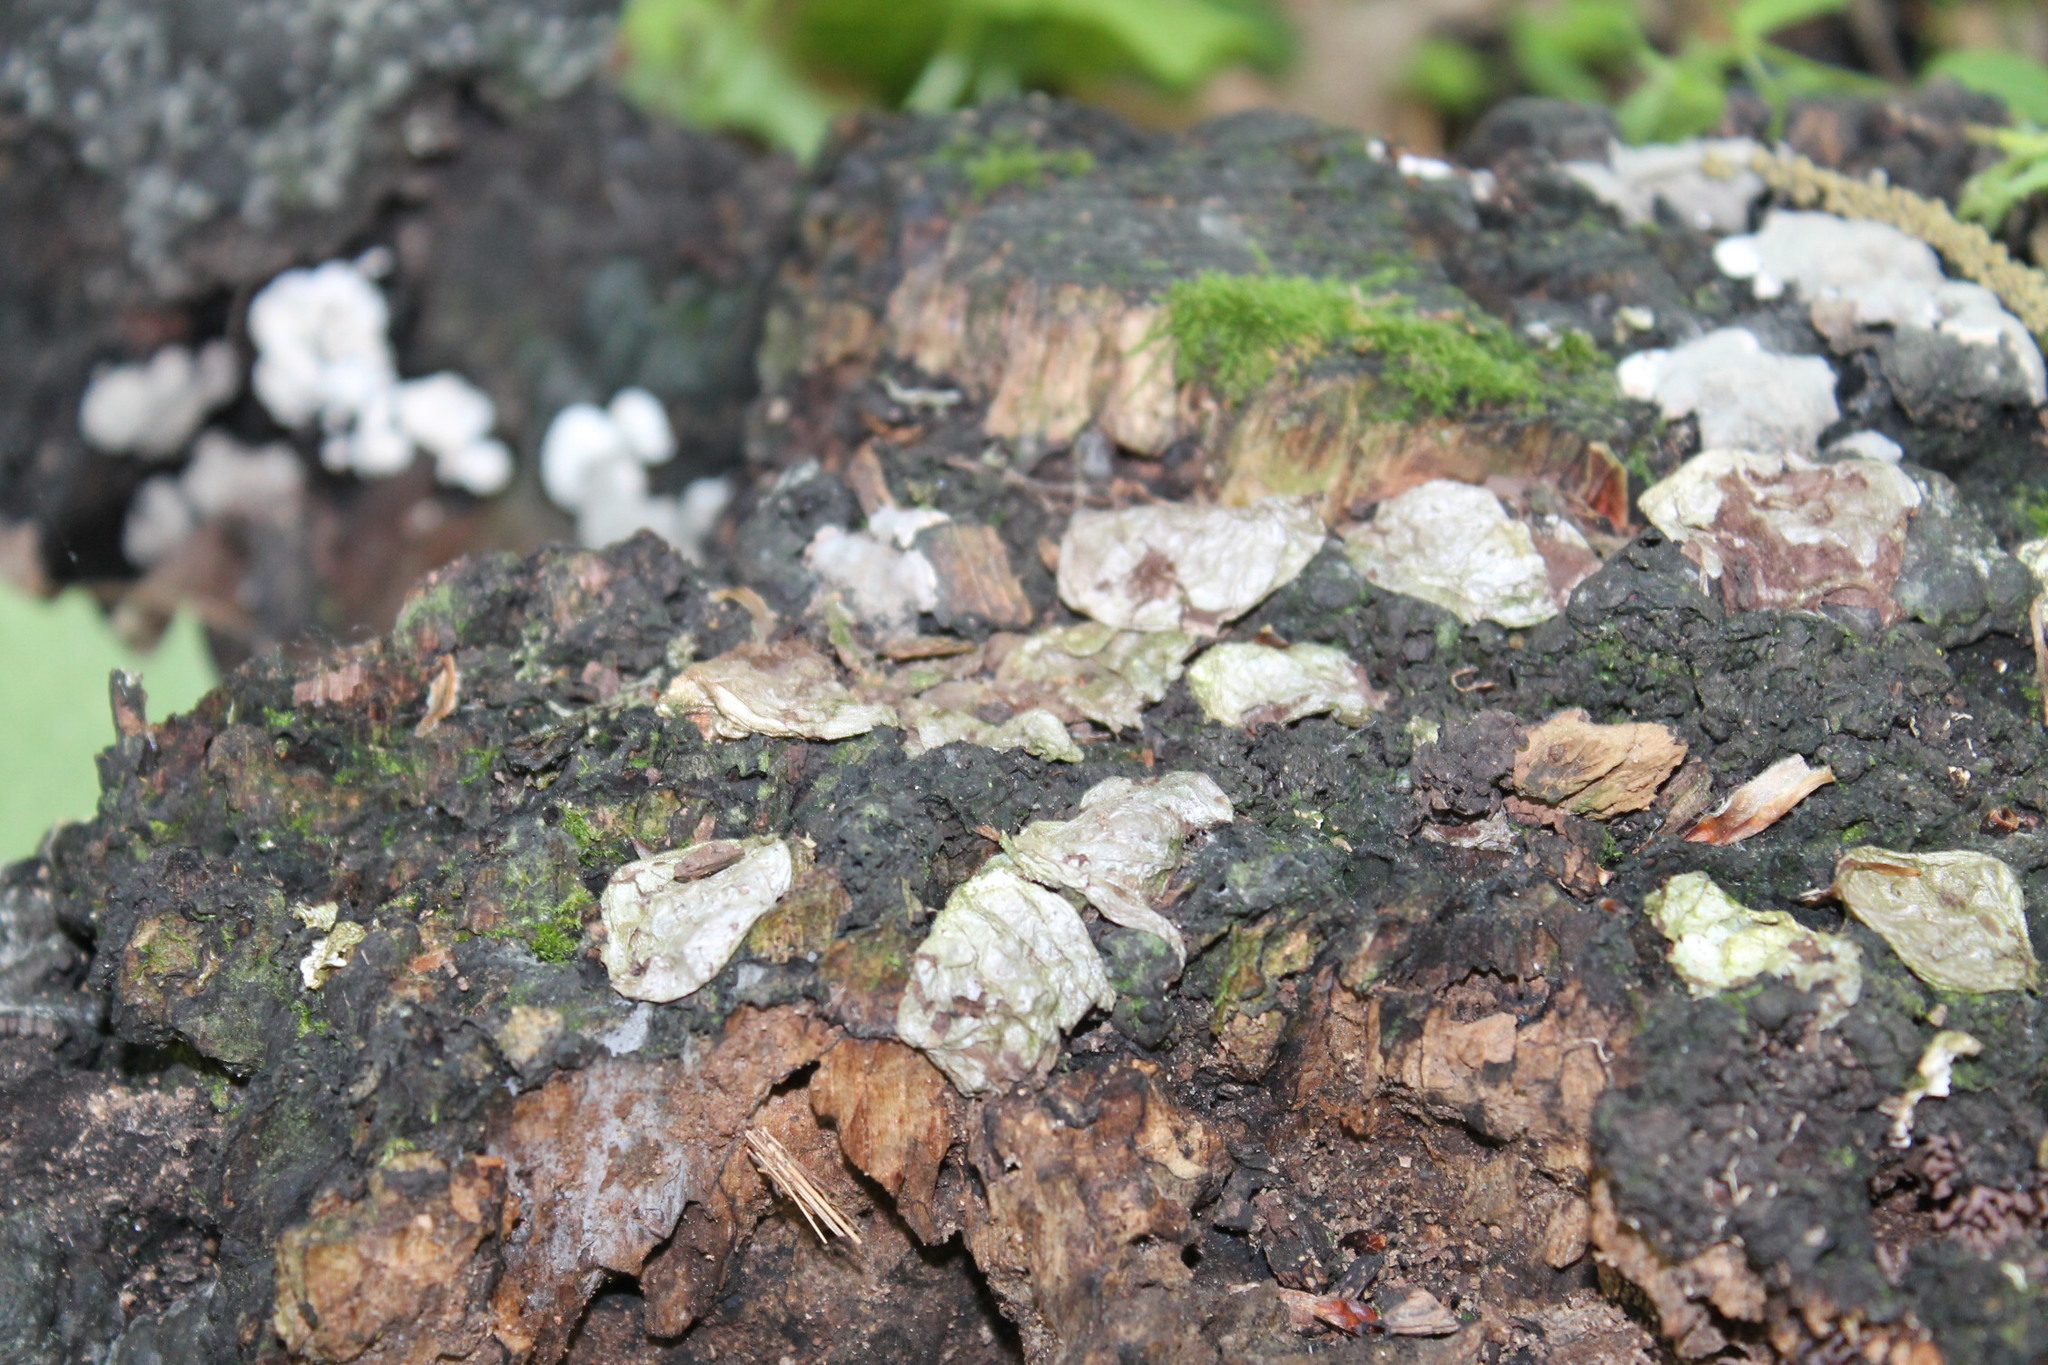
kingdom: Fungi
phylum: Basidiomycota
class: Agaricomycetes
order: Agaricales
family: Lycoperdaceae
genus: Apioperdon
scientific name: Apioperdon pyriforme
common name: Pear-shaped puffball
